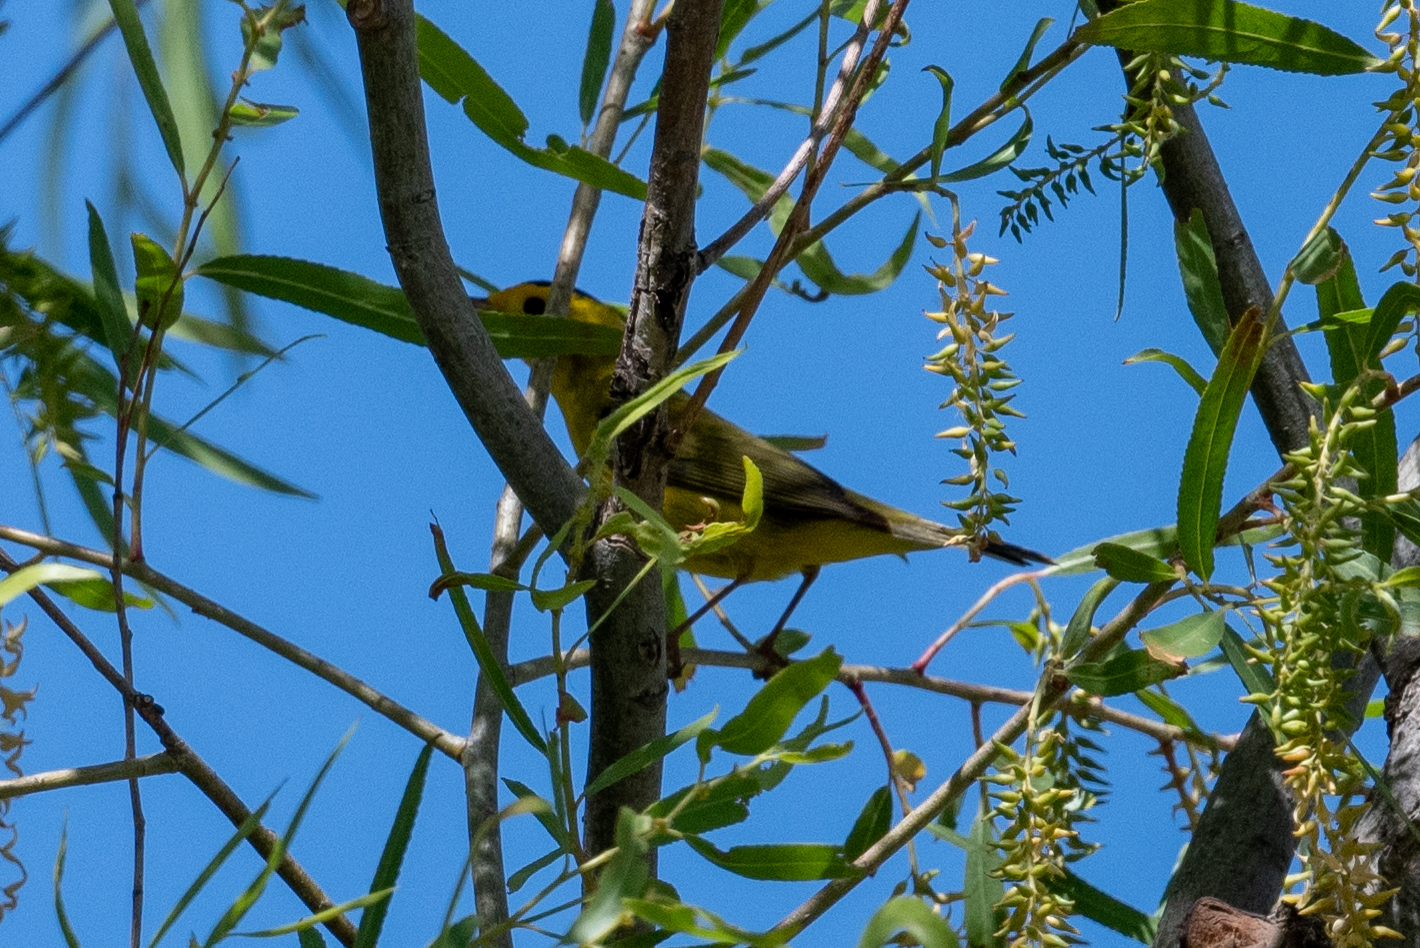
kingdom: Animalia
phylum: Chordata
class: Aves
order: Passeriformes
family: Parulidae
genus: Cardellina
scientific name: Cardellina pusilla
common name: Wilson's warbler
